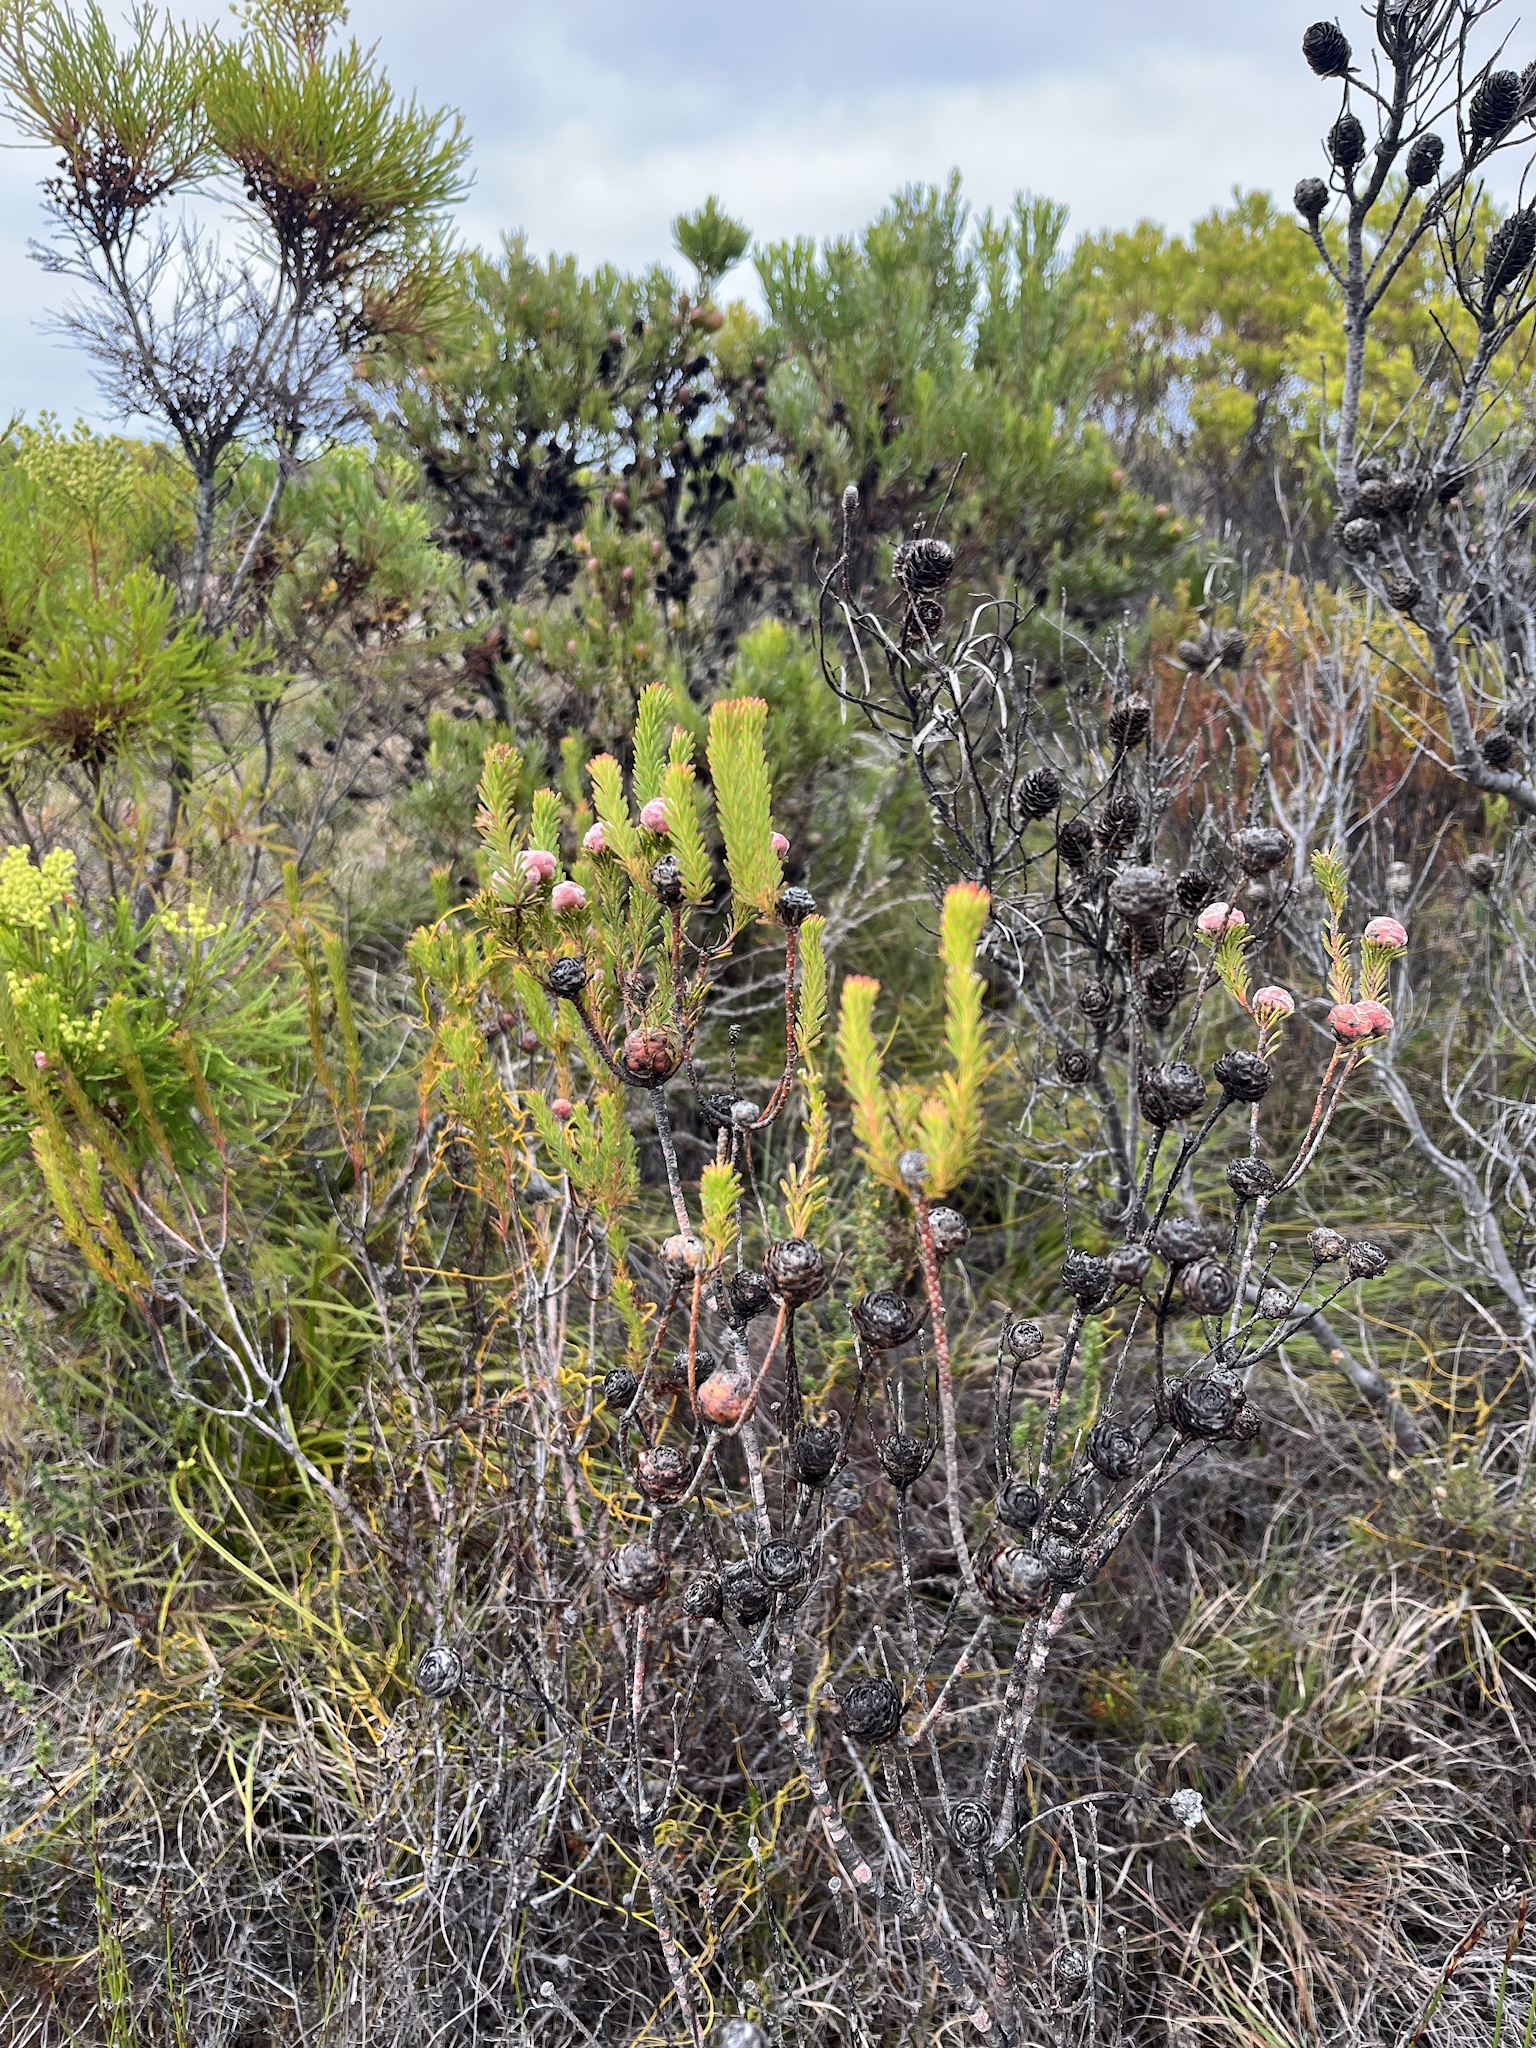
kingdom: Plantae
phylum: Tracheophyta
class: Magnoliopsida
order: Proteales
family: Proteaceae
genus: Leucadendron
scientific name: Leucadendron linifolium
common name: Line-leaf conebush
